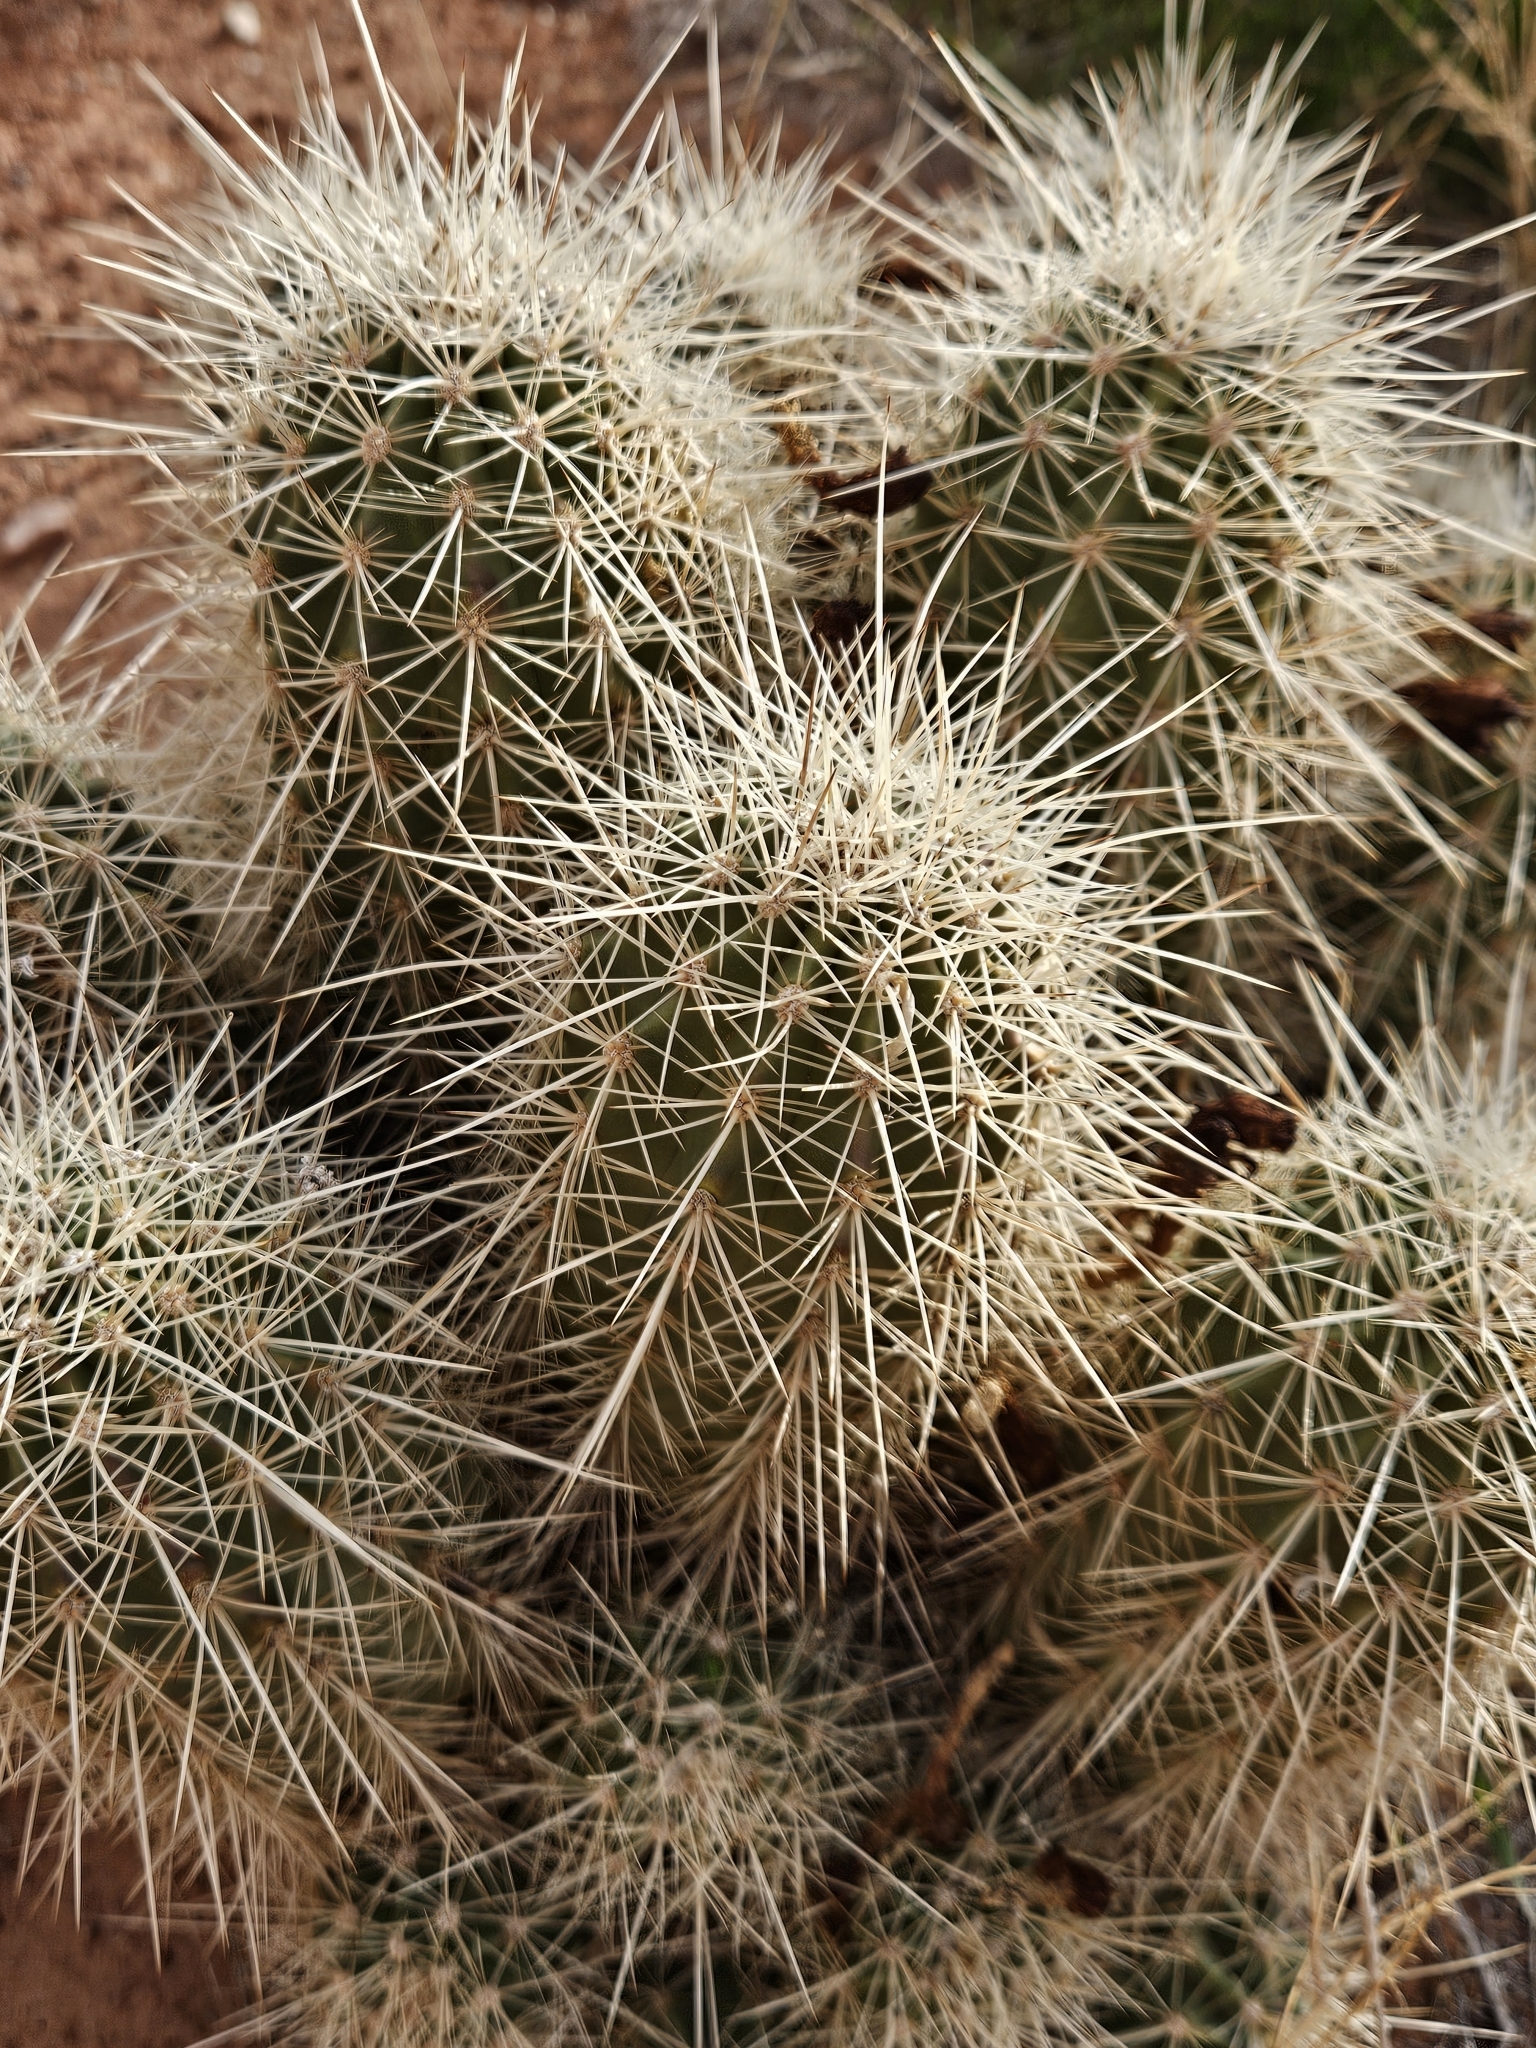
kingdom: Plantae
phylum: Tracheophyta
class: Magnoliopsida
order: Caryophyllales
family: Cactaceae
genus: Echinocereus
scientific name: Echinocereus triglochidiatus
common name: Claretcup hedgehog
